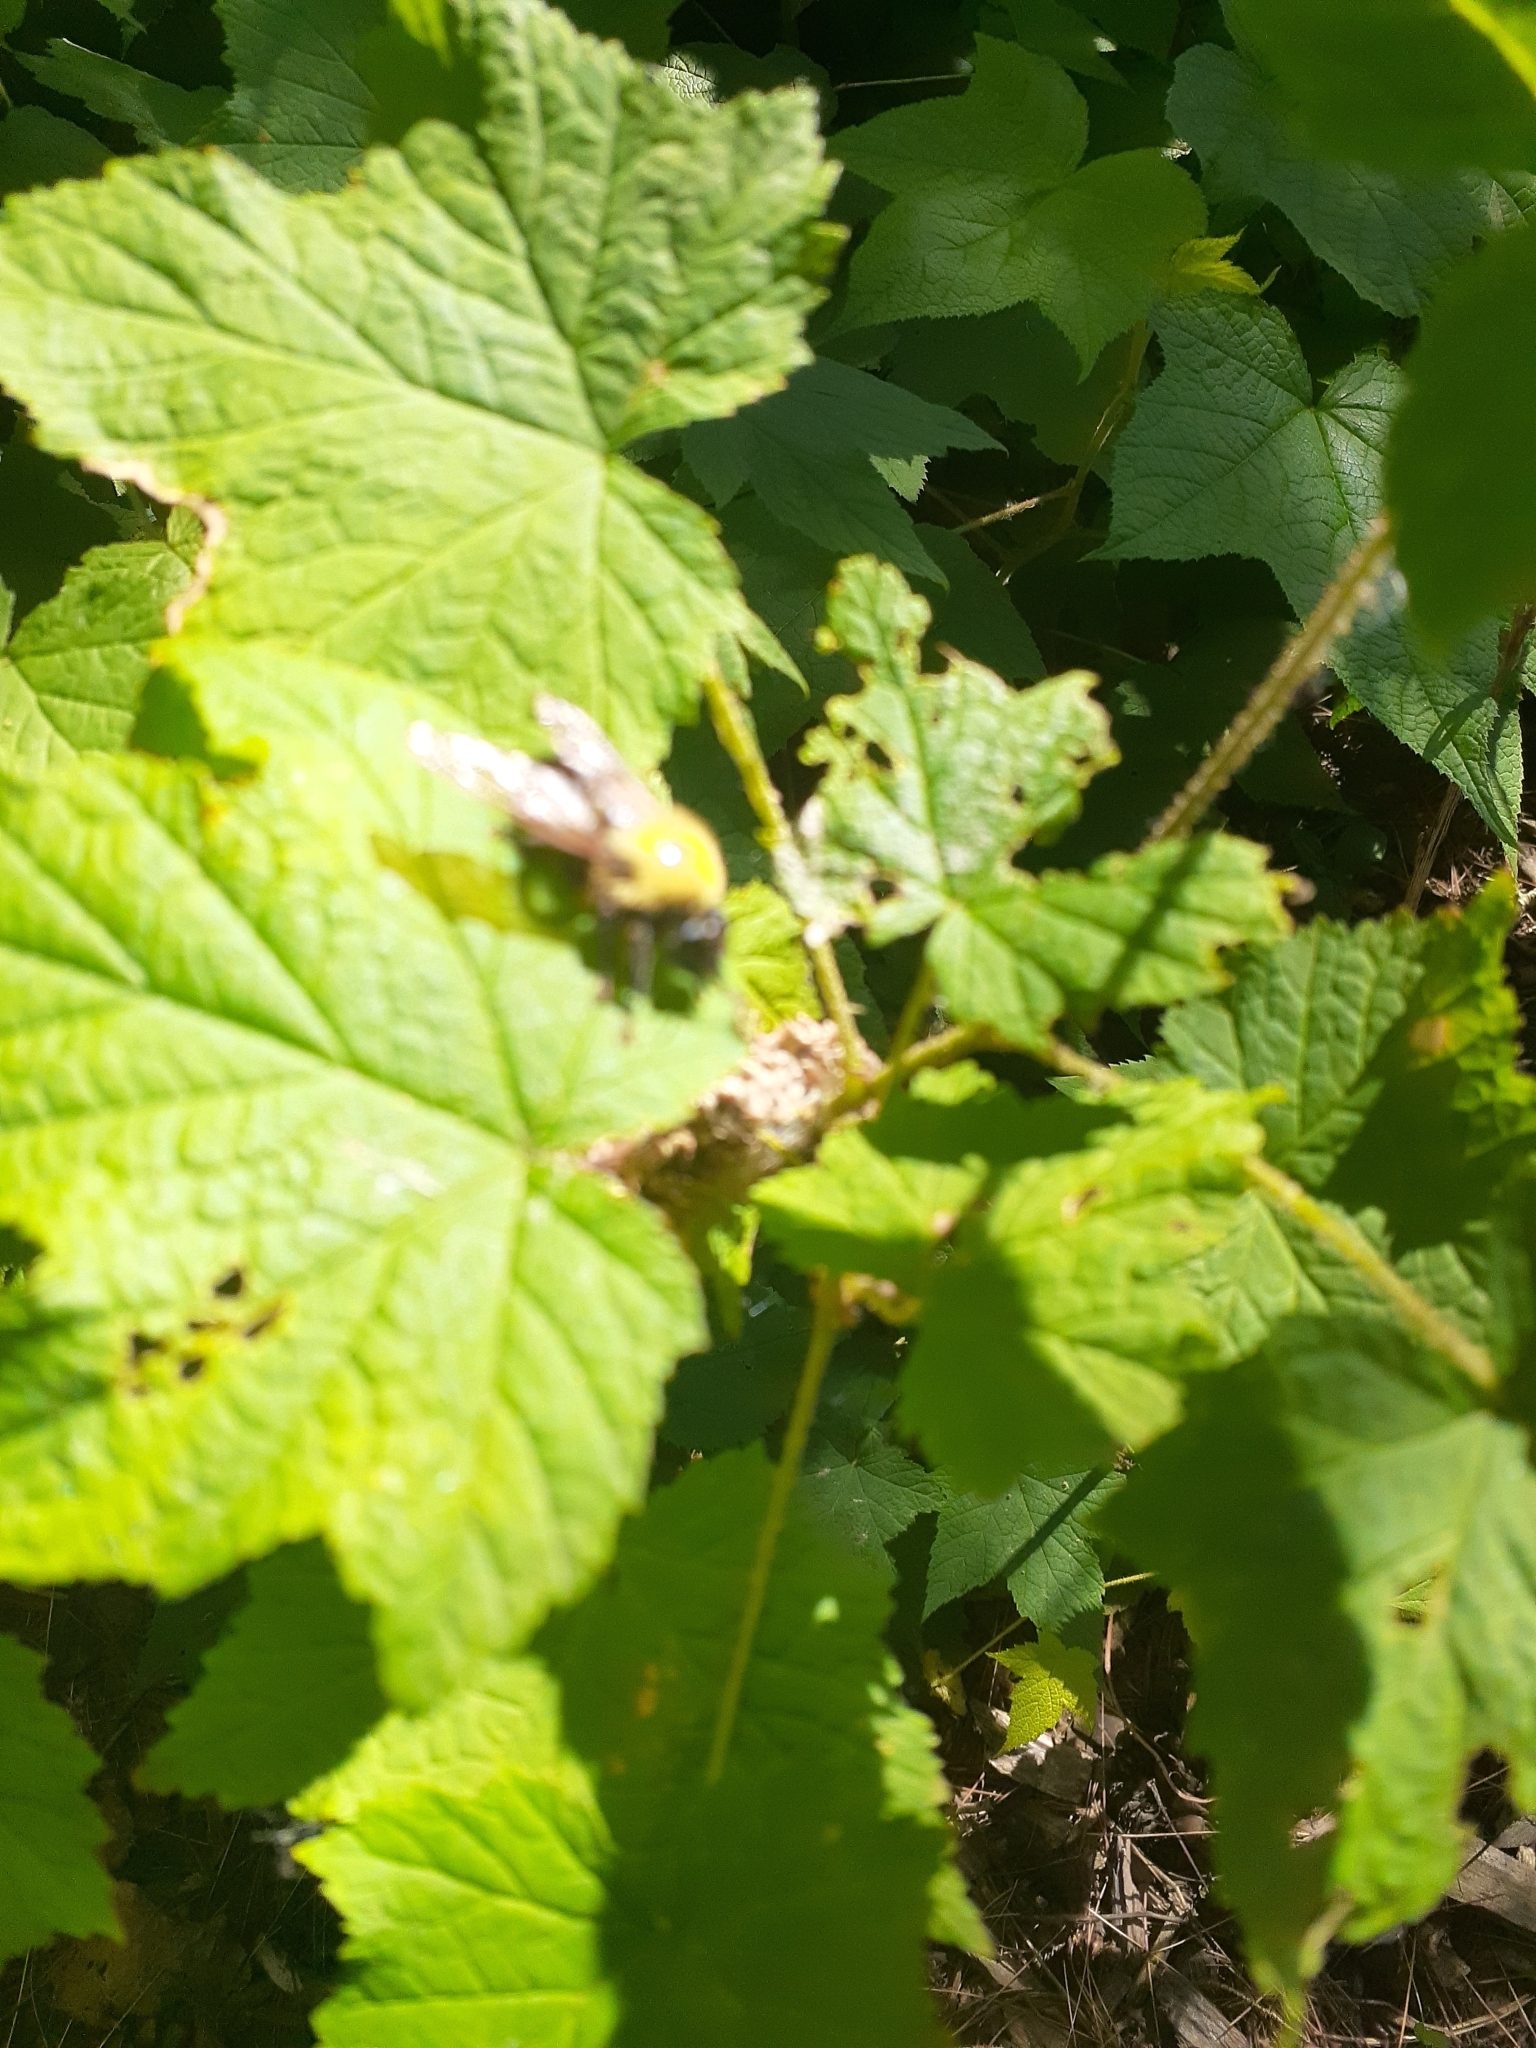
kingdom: Animalia
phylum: Arthropoda
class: Insecta
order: Diptera
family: Asilidae
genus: Laphria
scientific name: Laphria thoracica
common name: Bumble bee mimic robber fly
